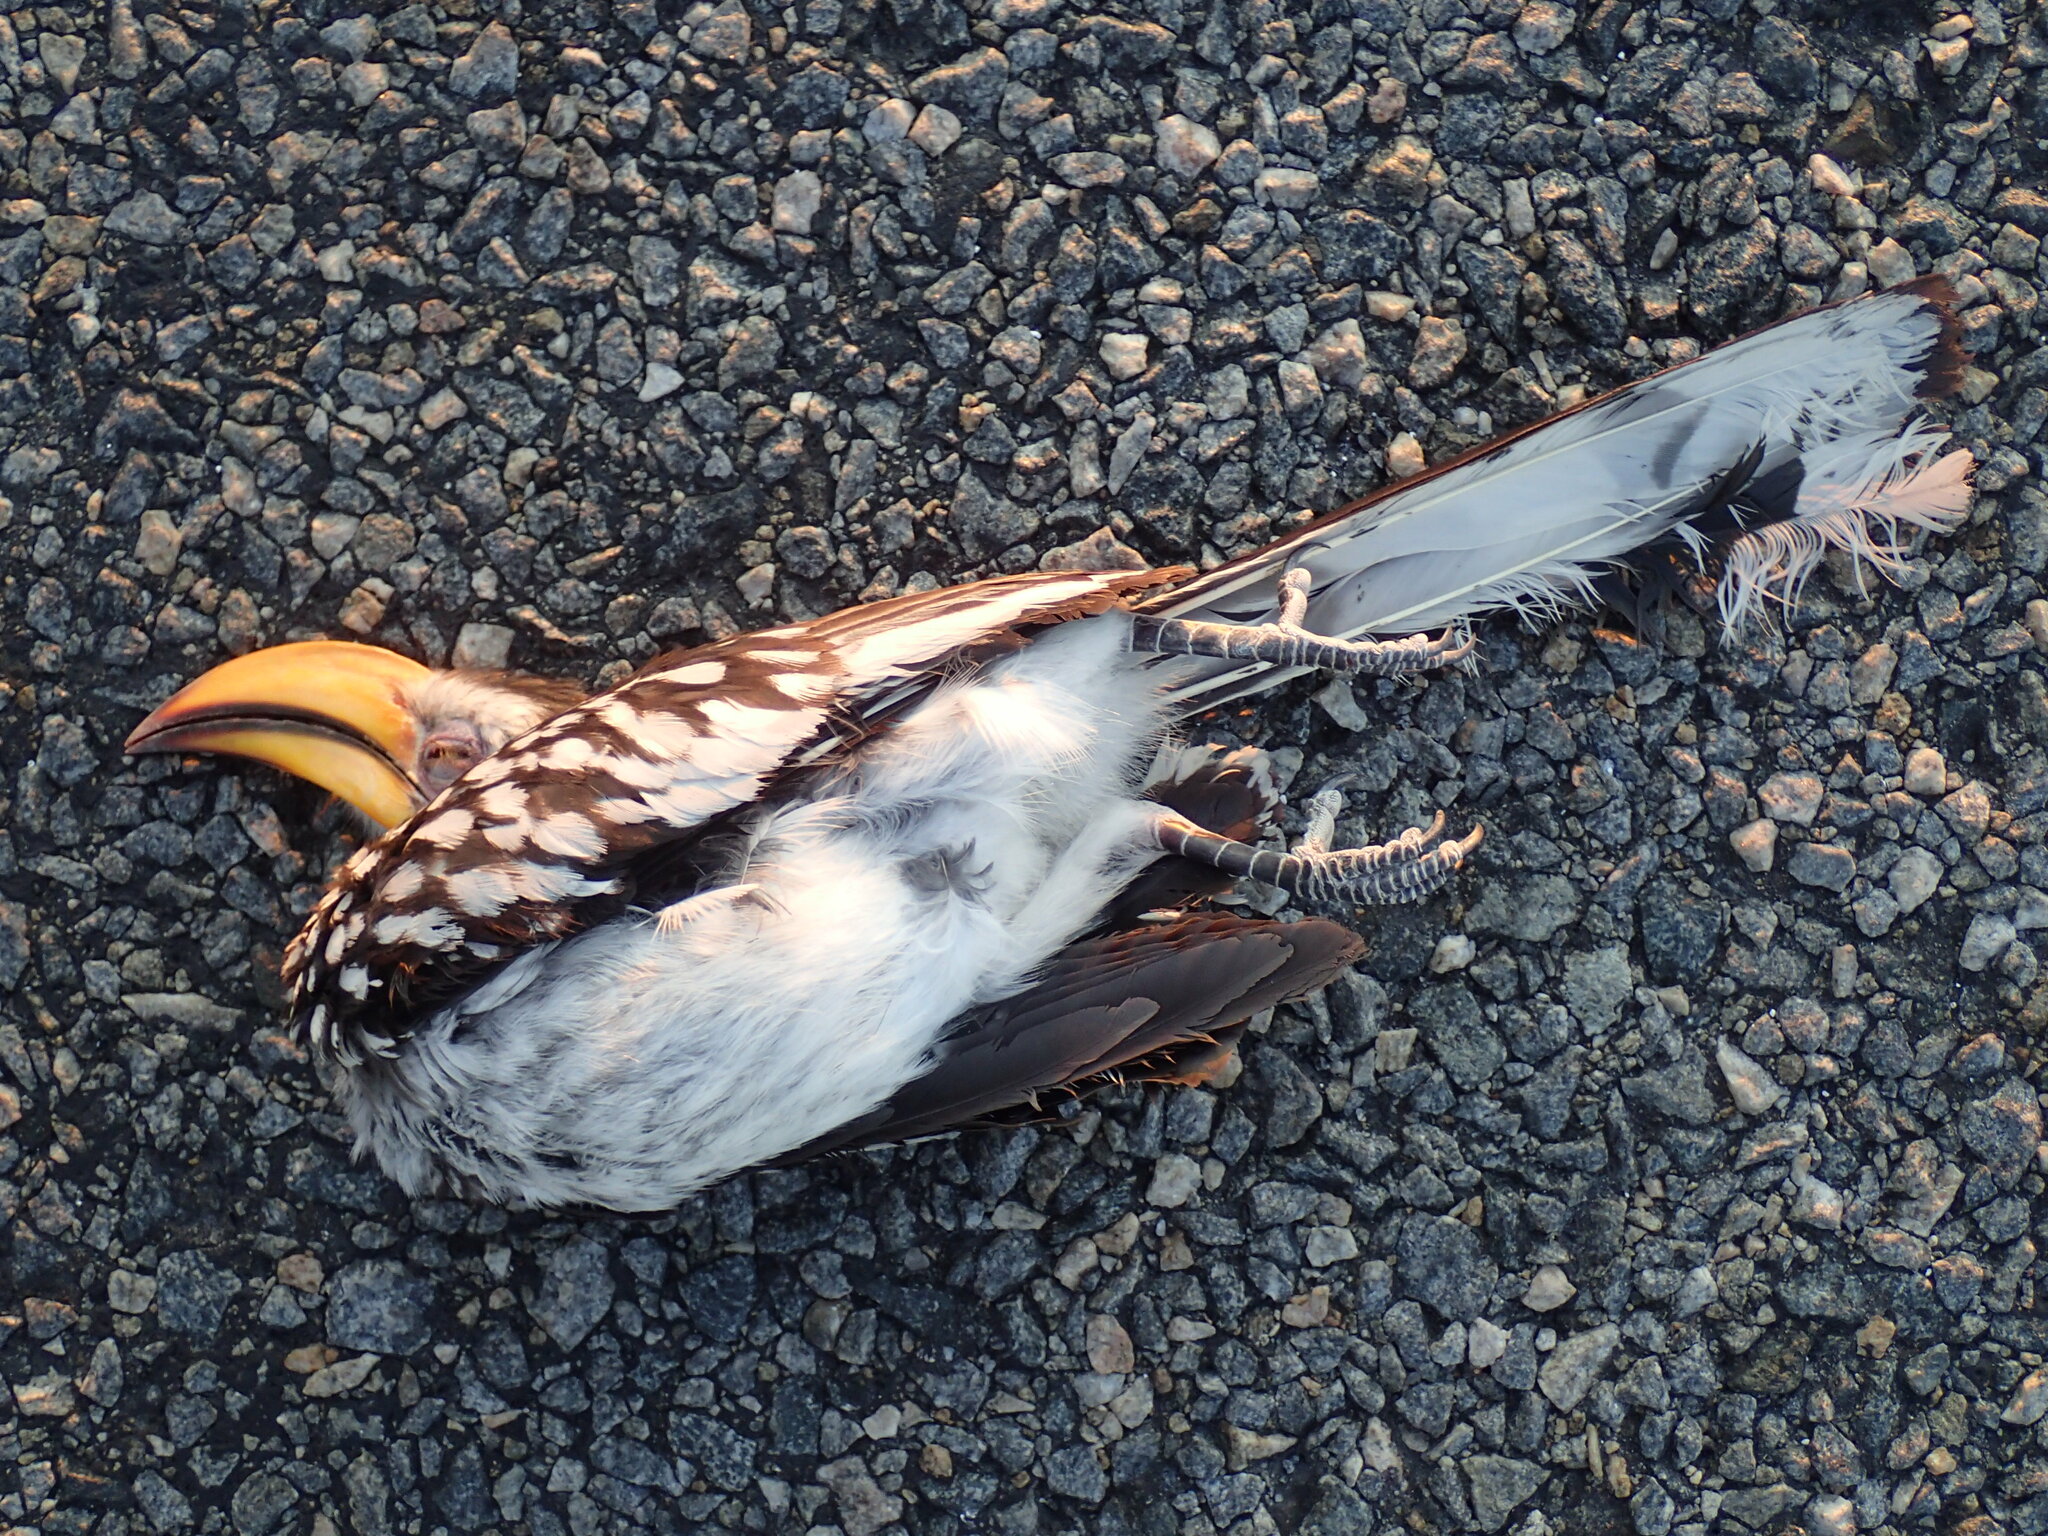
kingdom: Animalia
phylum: Chordata
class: Aves
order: Bucerotiformes
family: Bucerotidae
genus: Tockus
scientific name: Tockus leucomelas
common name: Southern yellow-billed hornbill
